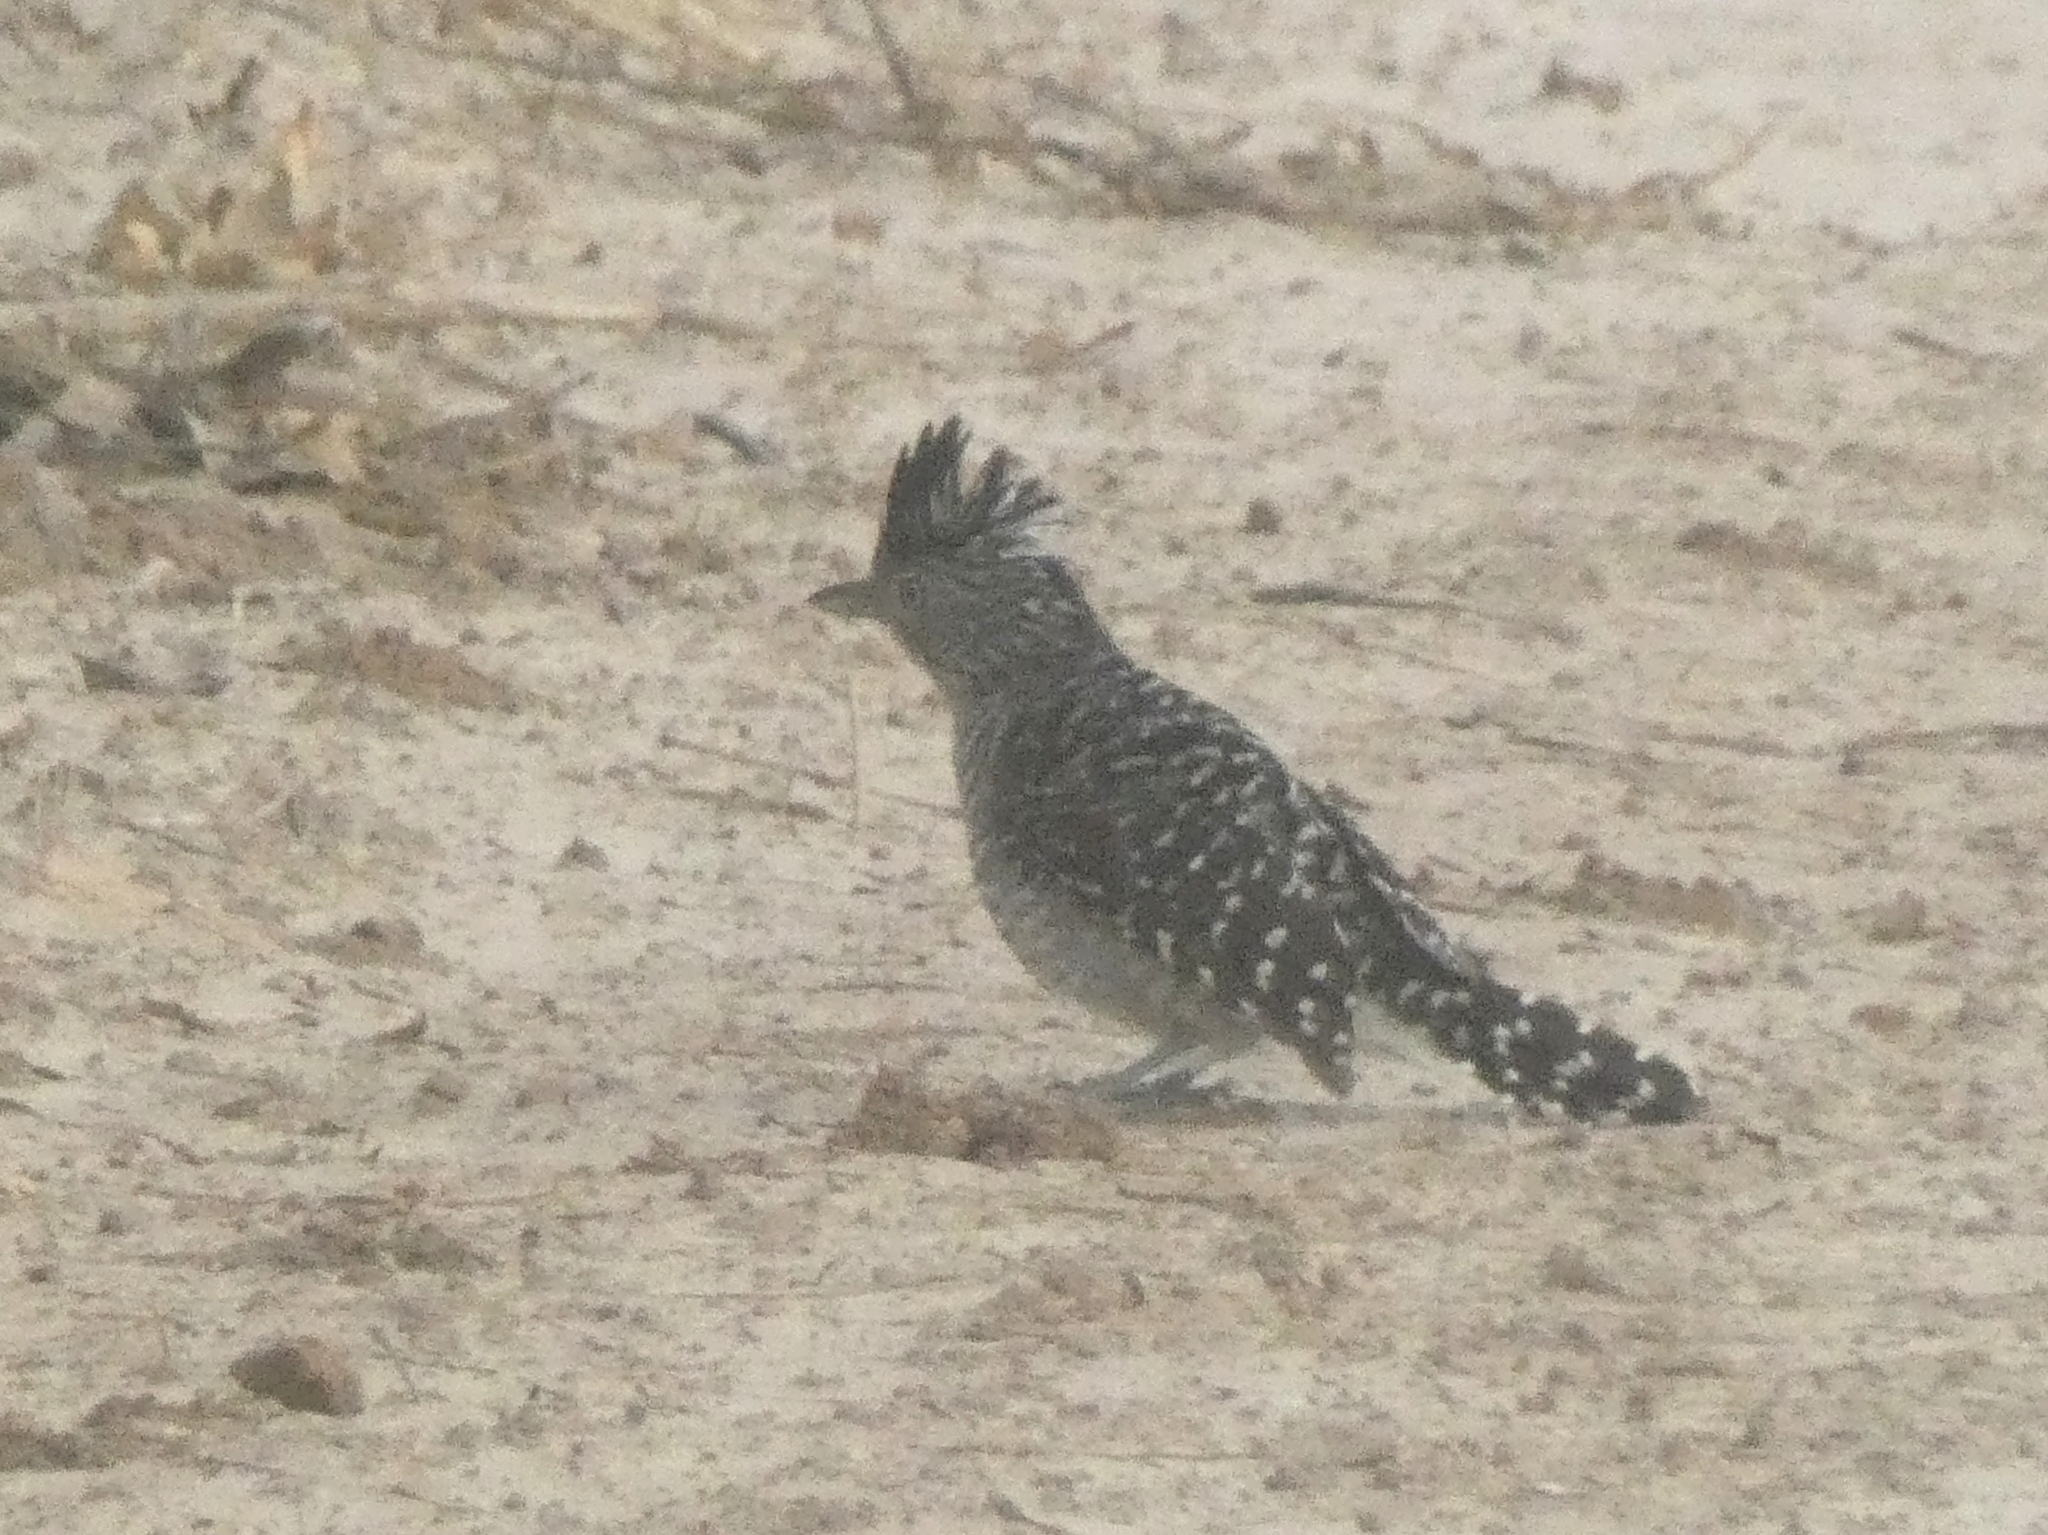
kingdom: Animalia
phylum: Chordata
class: Aves
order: Passeriformes
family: Thamnophilidae
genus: Thamnophilus
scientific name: Thamnophilus doliatus
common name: Barred antshrike
